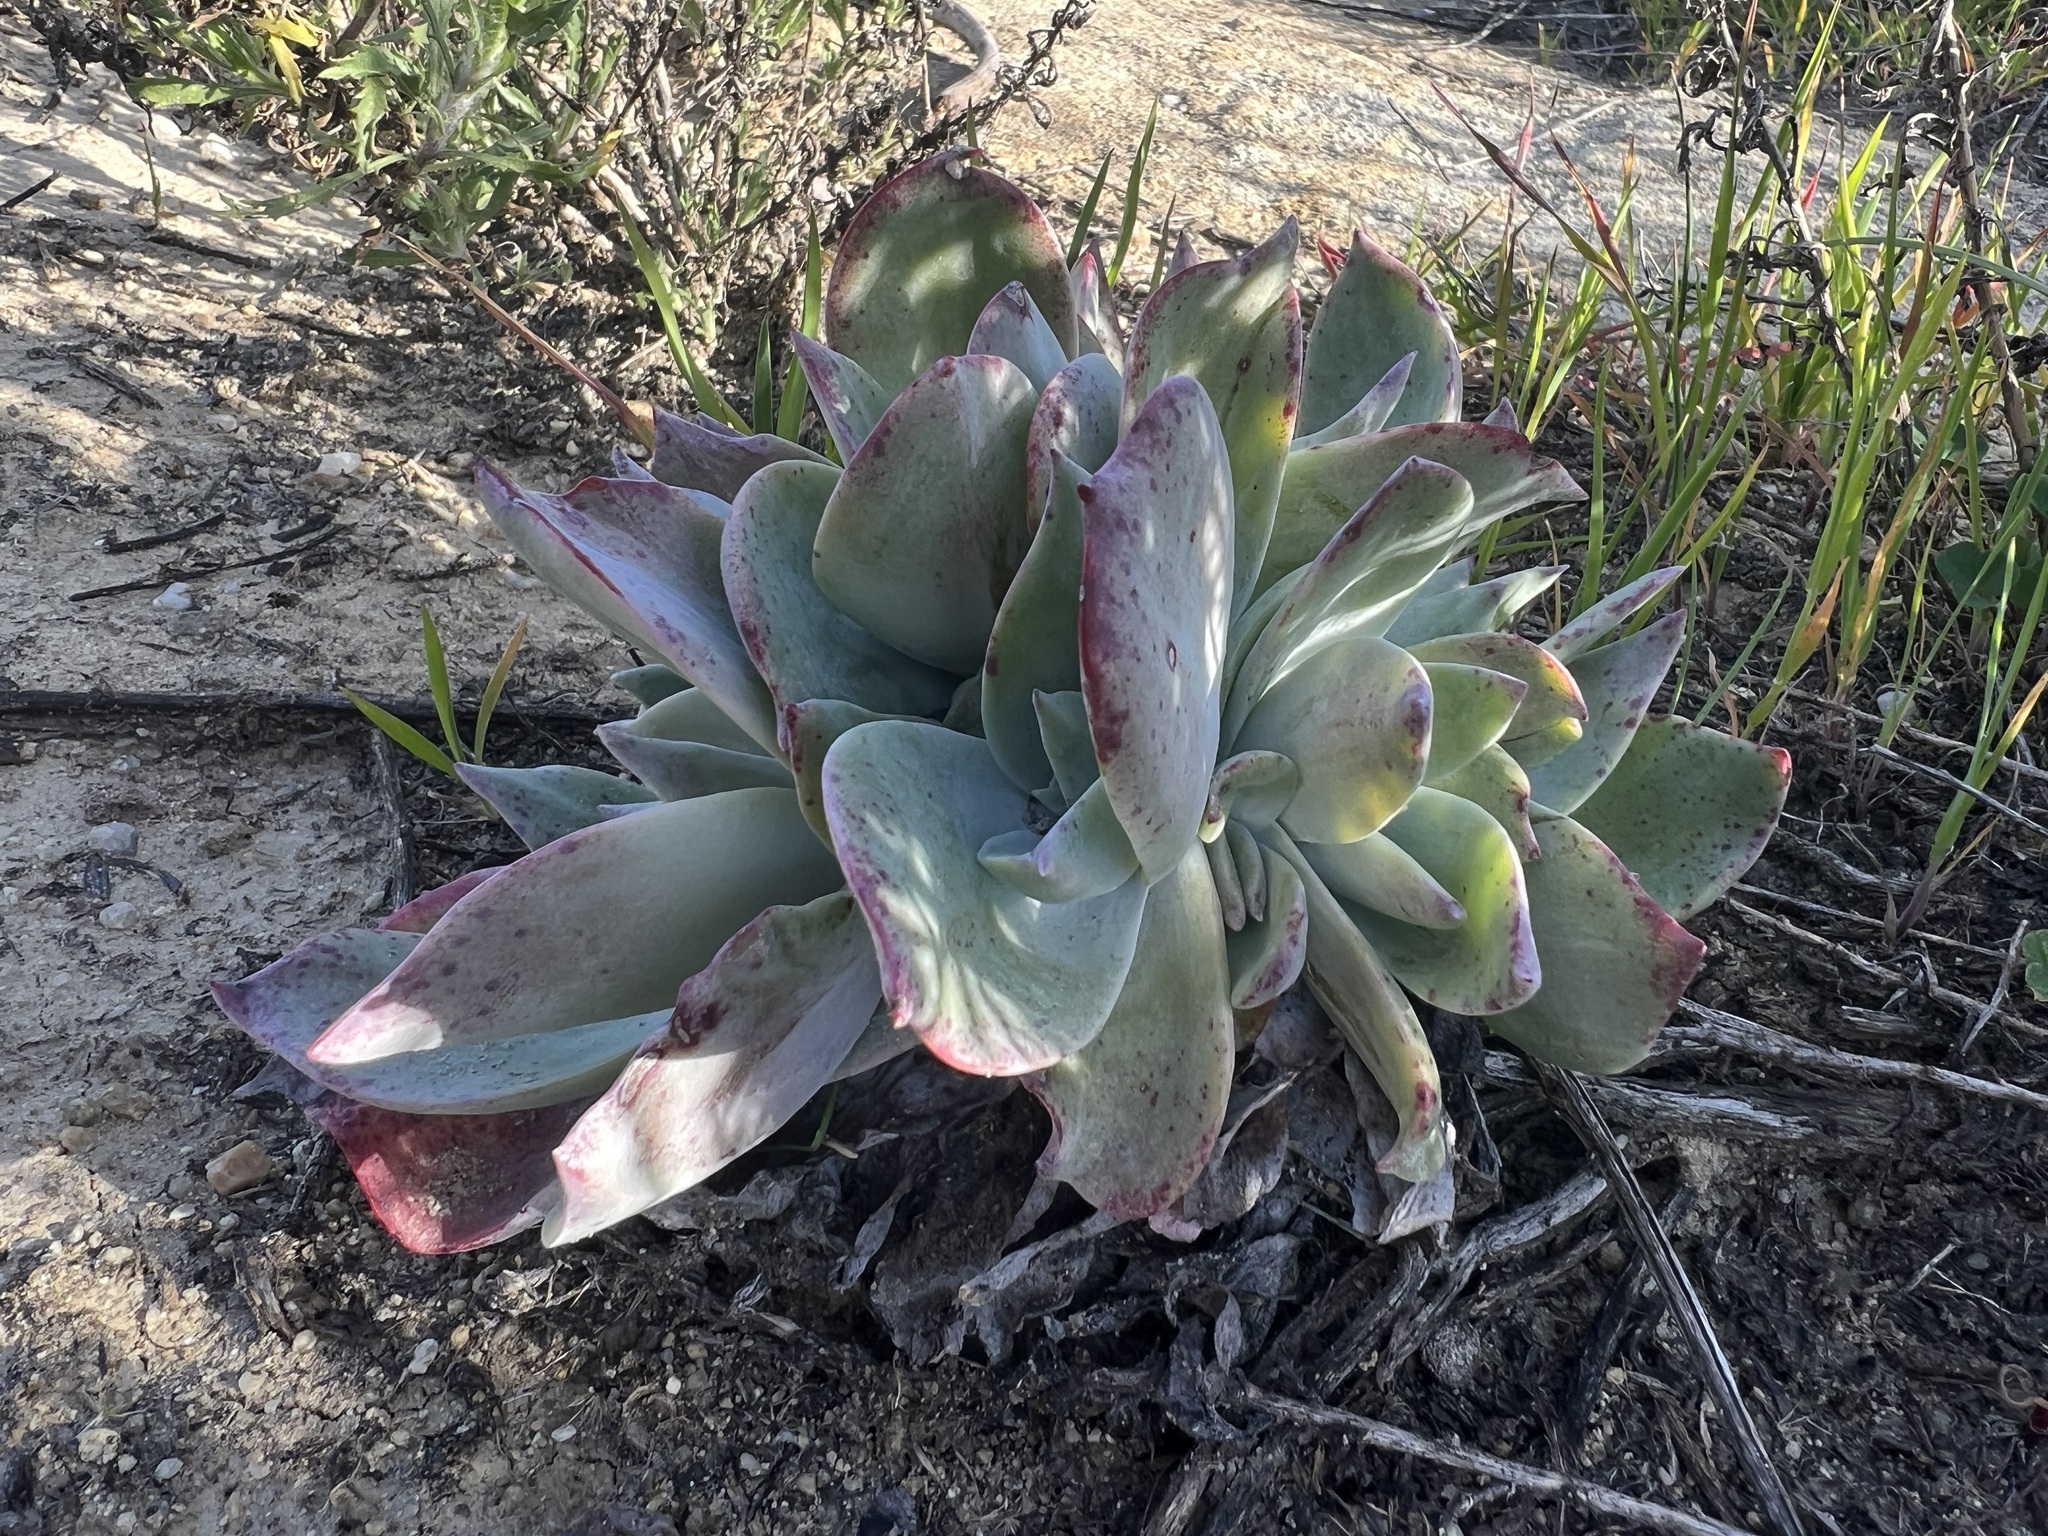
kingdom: Plantae
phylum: Tracheophyta
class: Magnoliopsida
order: Saxifragales
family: Crassulaceae
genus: Dudleya
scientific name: Dudleya pulverulenta
